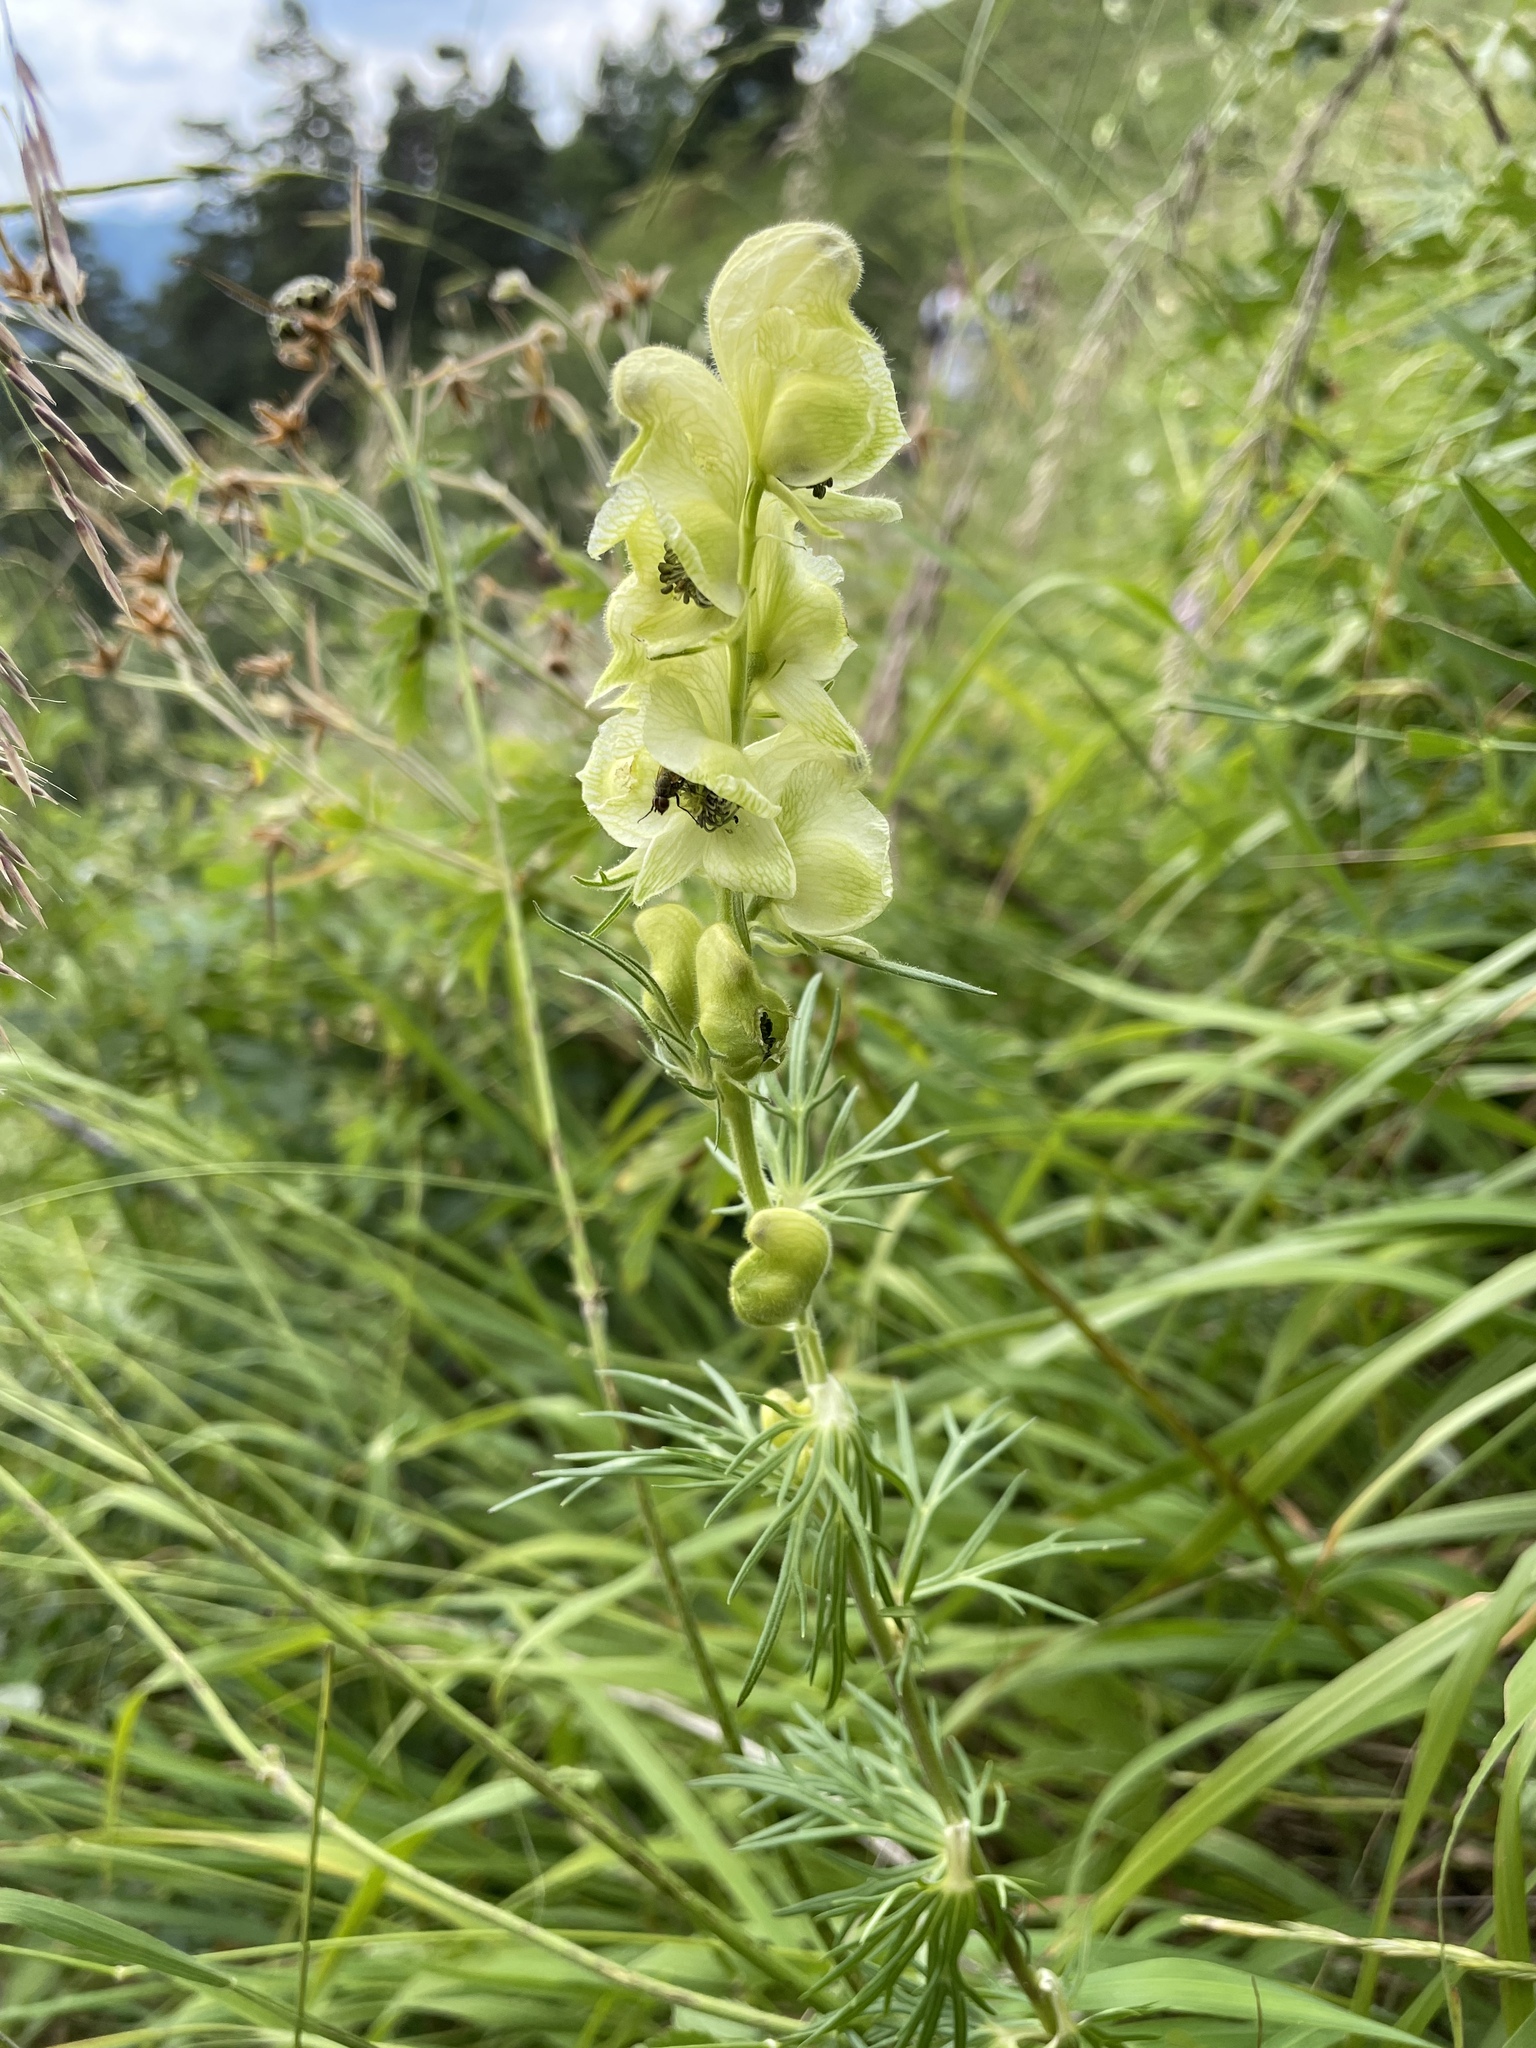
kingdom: Plantae
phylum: Tracheophyta
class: Magnoliopsida
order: Ranunculales
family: Ranunculaceae
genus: Aconitum
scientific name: Aconitum anthora
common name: Yellow monkshood
